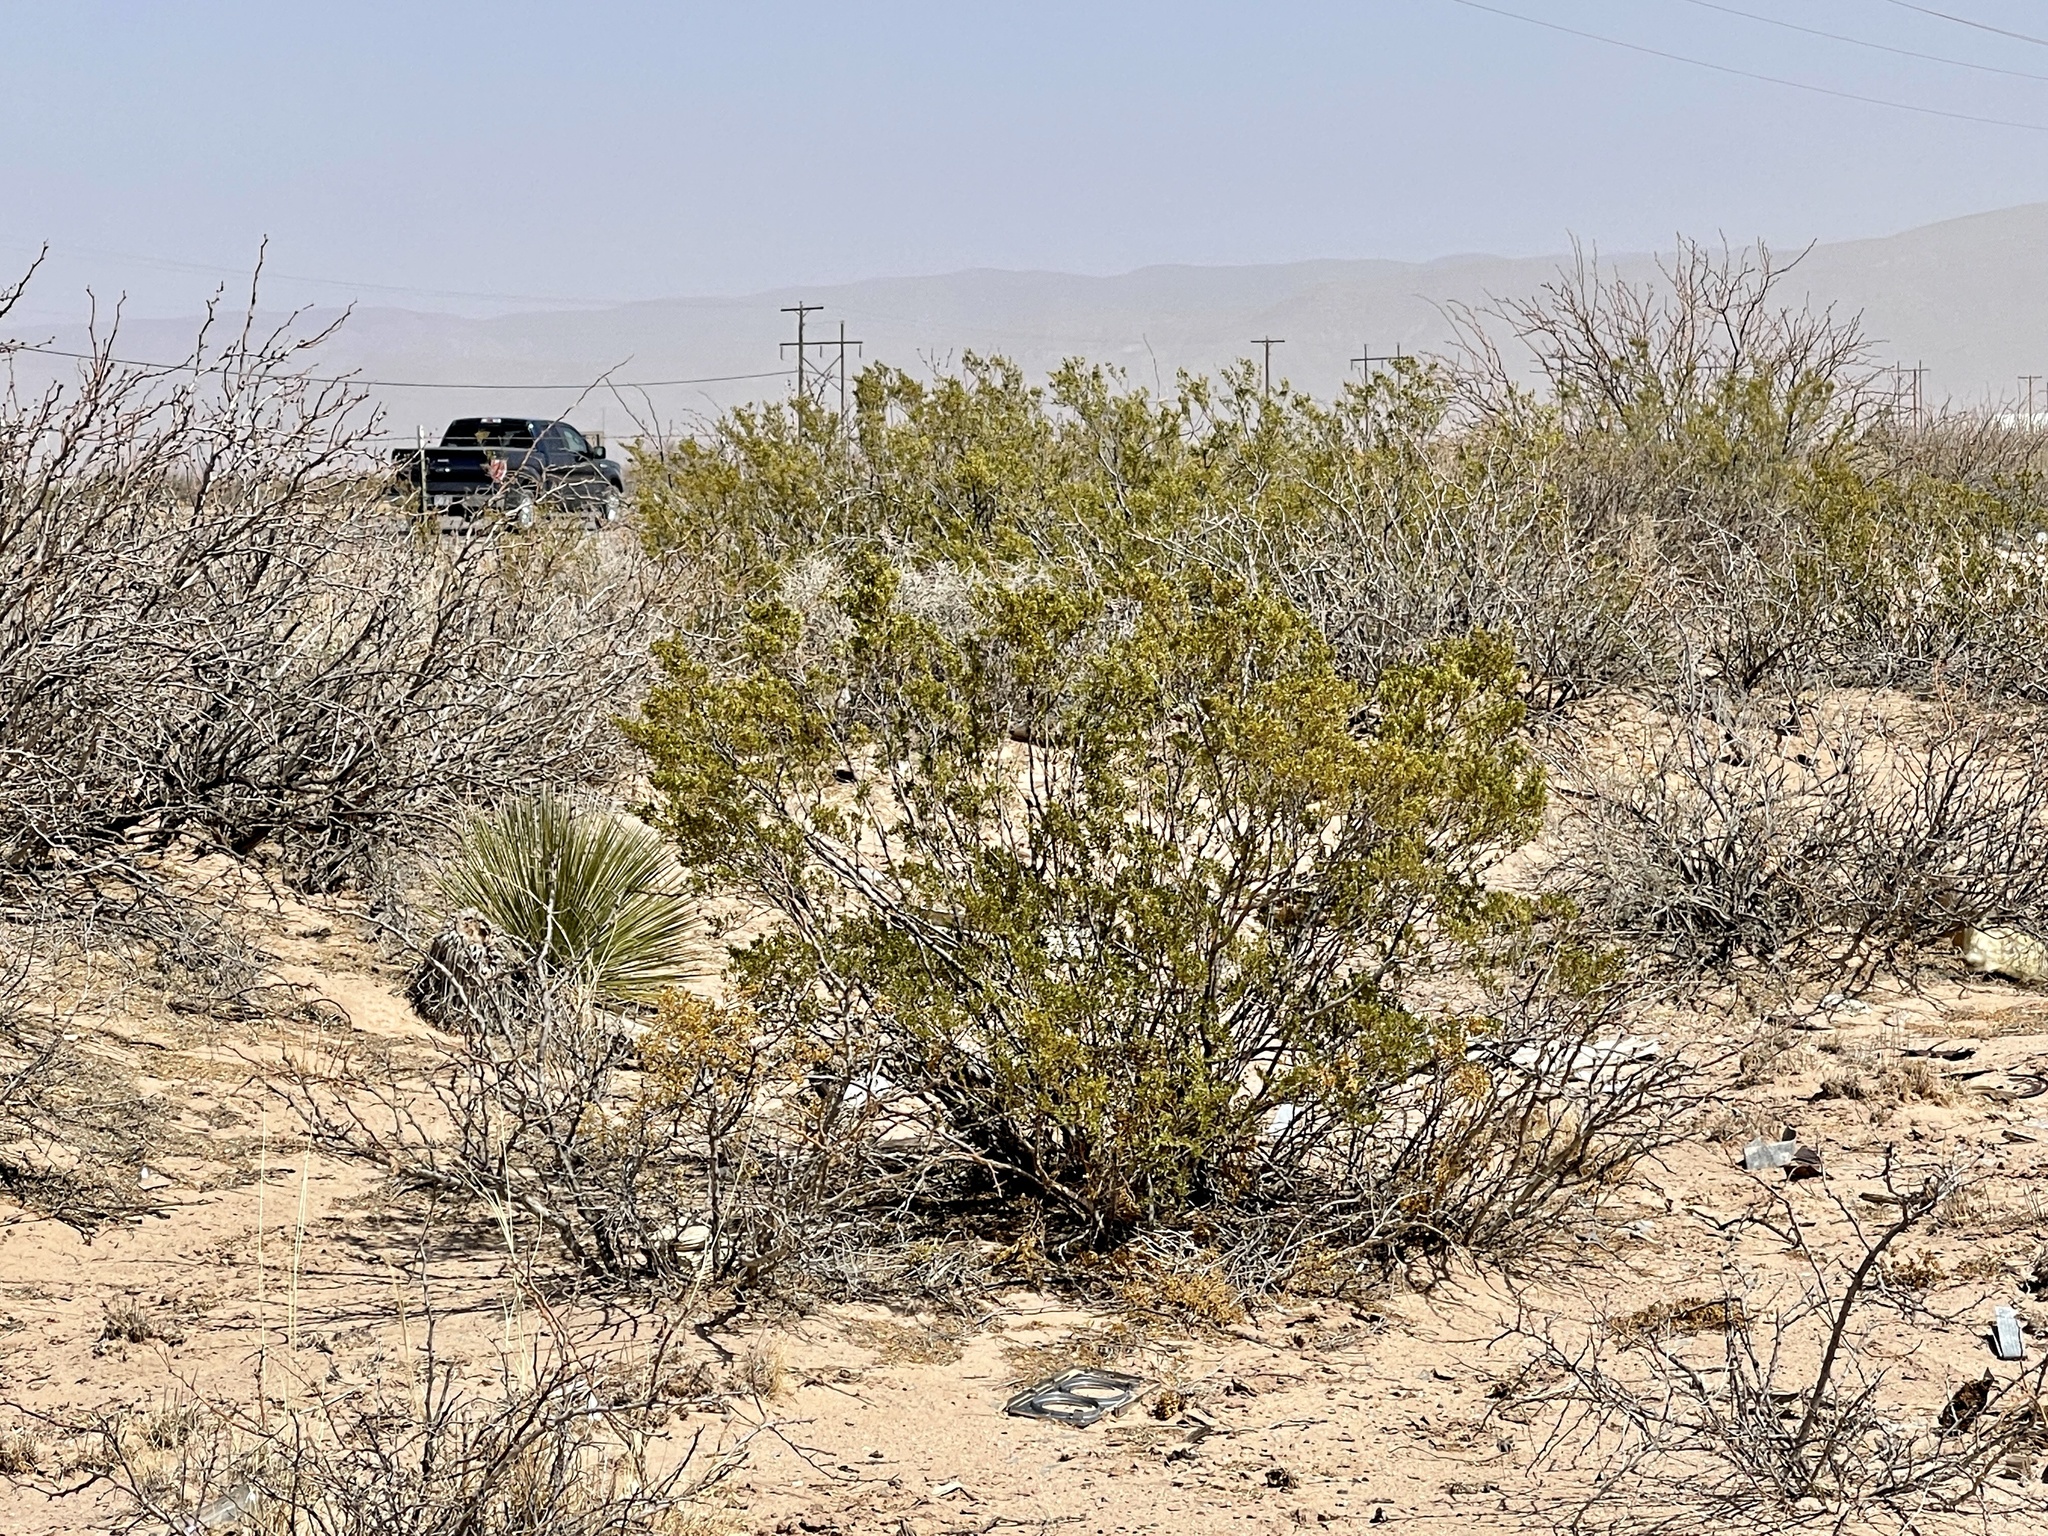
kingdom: Plantae
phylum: Tracheophyta
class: Magnoliopsida
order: Zygophyllales
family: Zygophyllaceae
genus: Larrea
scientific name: Larrea tridentata
